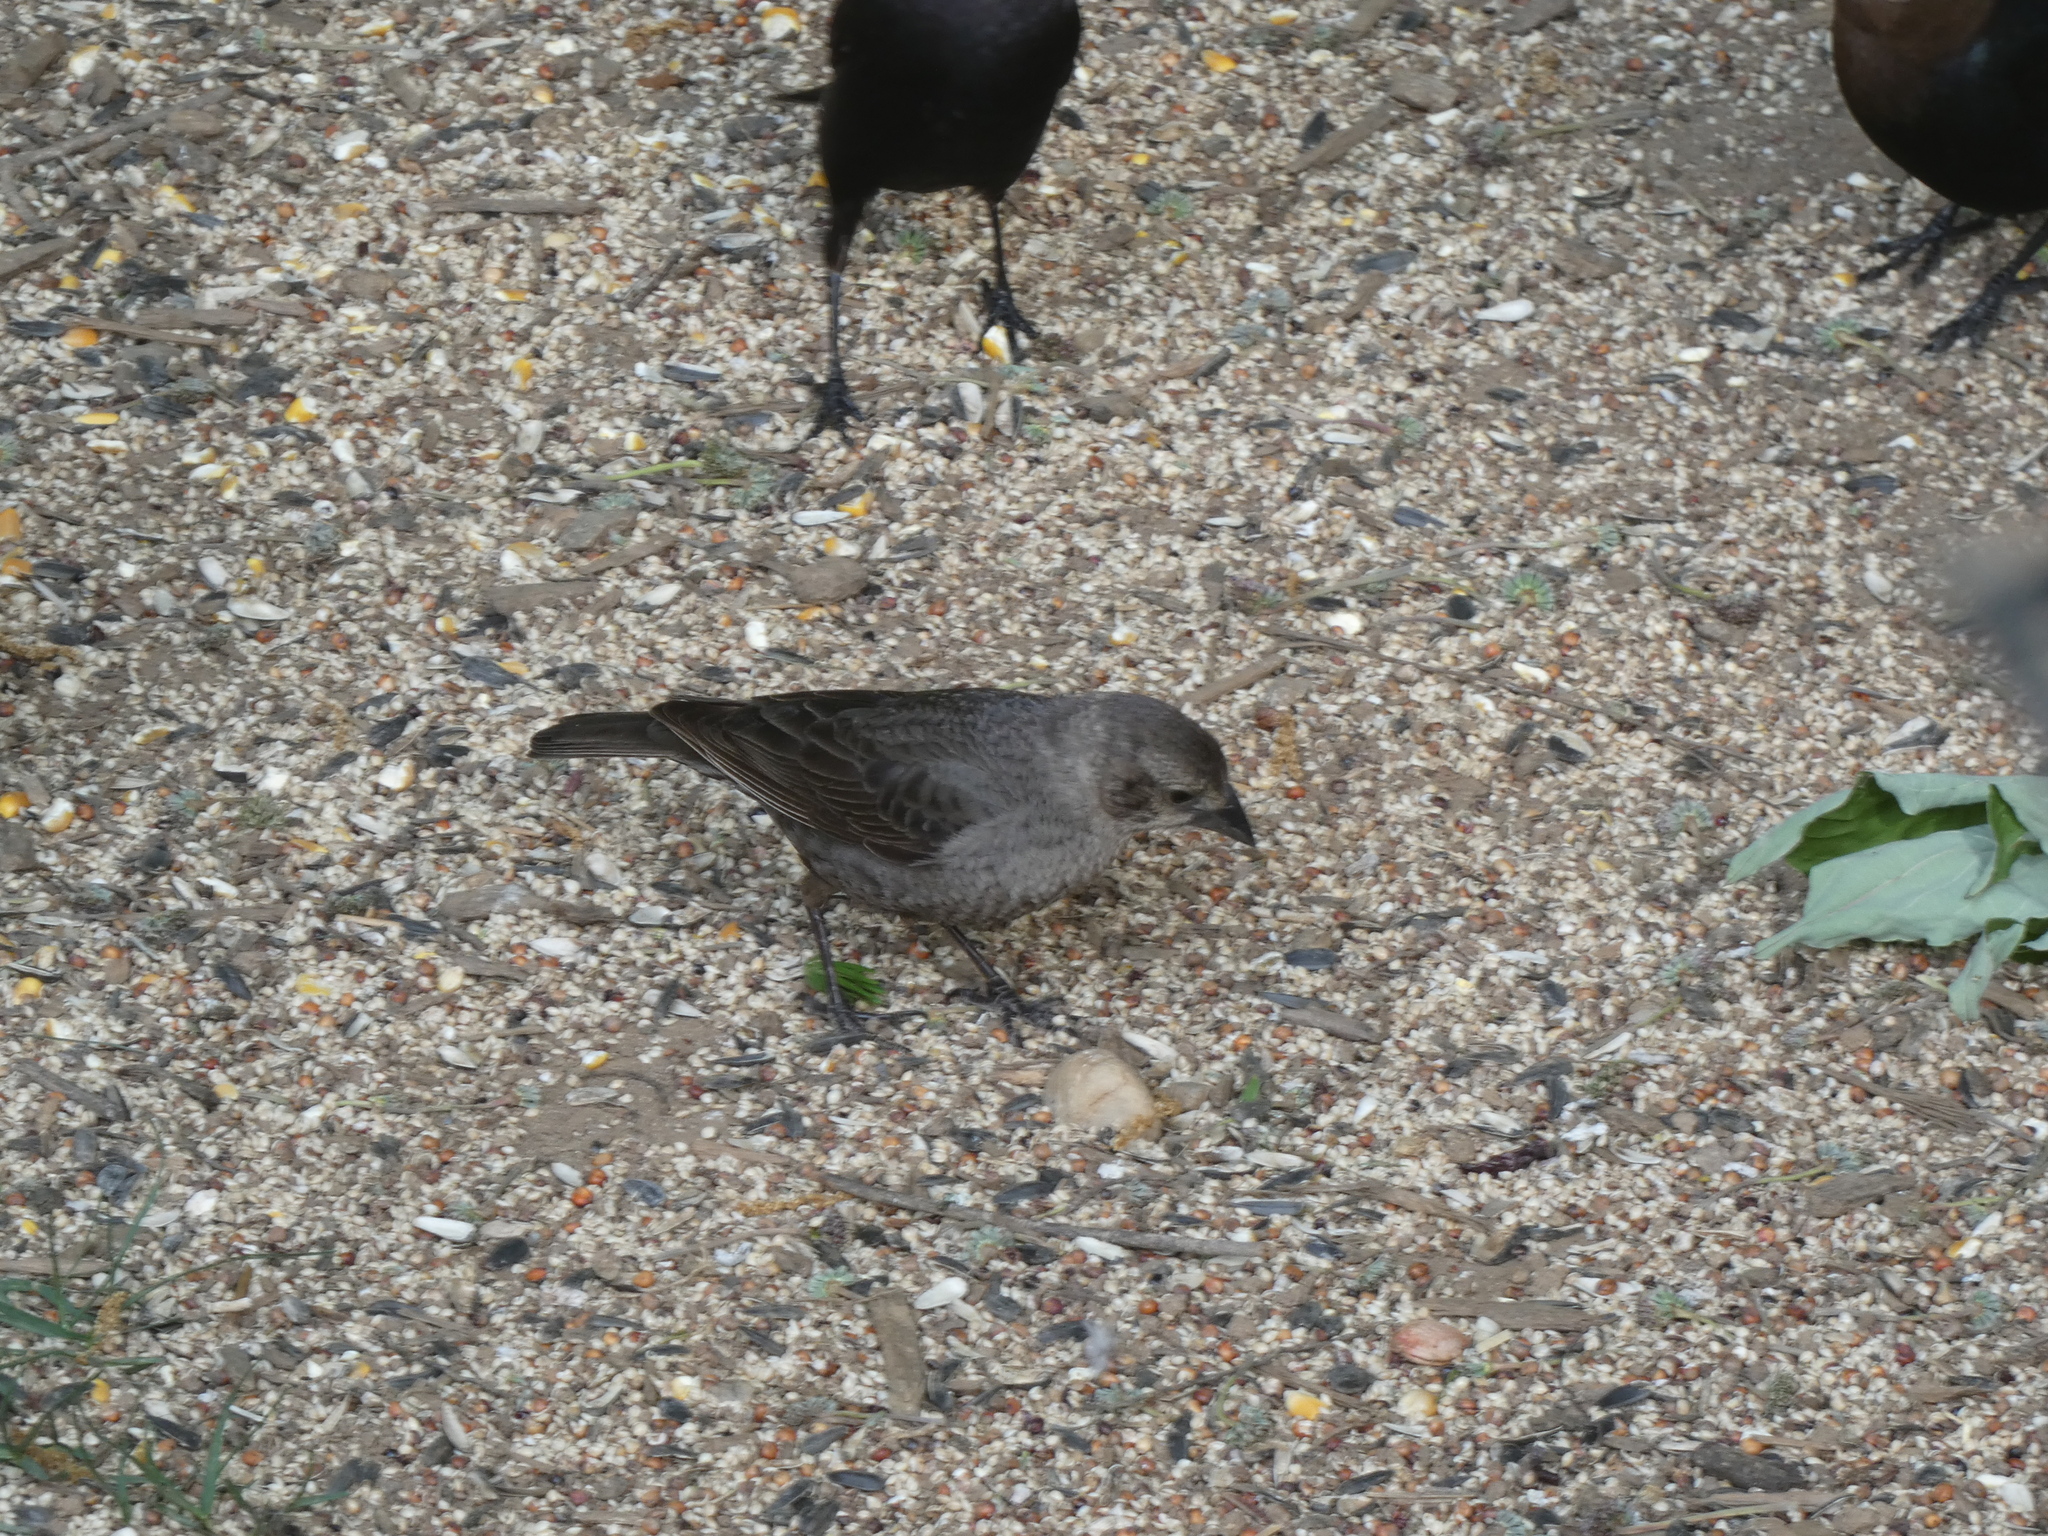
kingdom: Animalia
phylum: Chordata
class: Aves
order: Passeriformes
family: Icteridae
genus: Molothrus
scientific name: Molothrus ater
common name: Brown-headed cowbird
